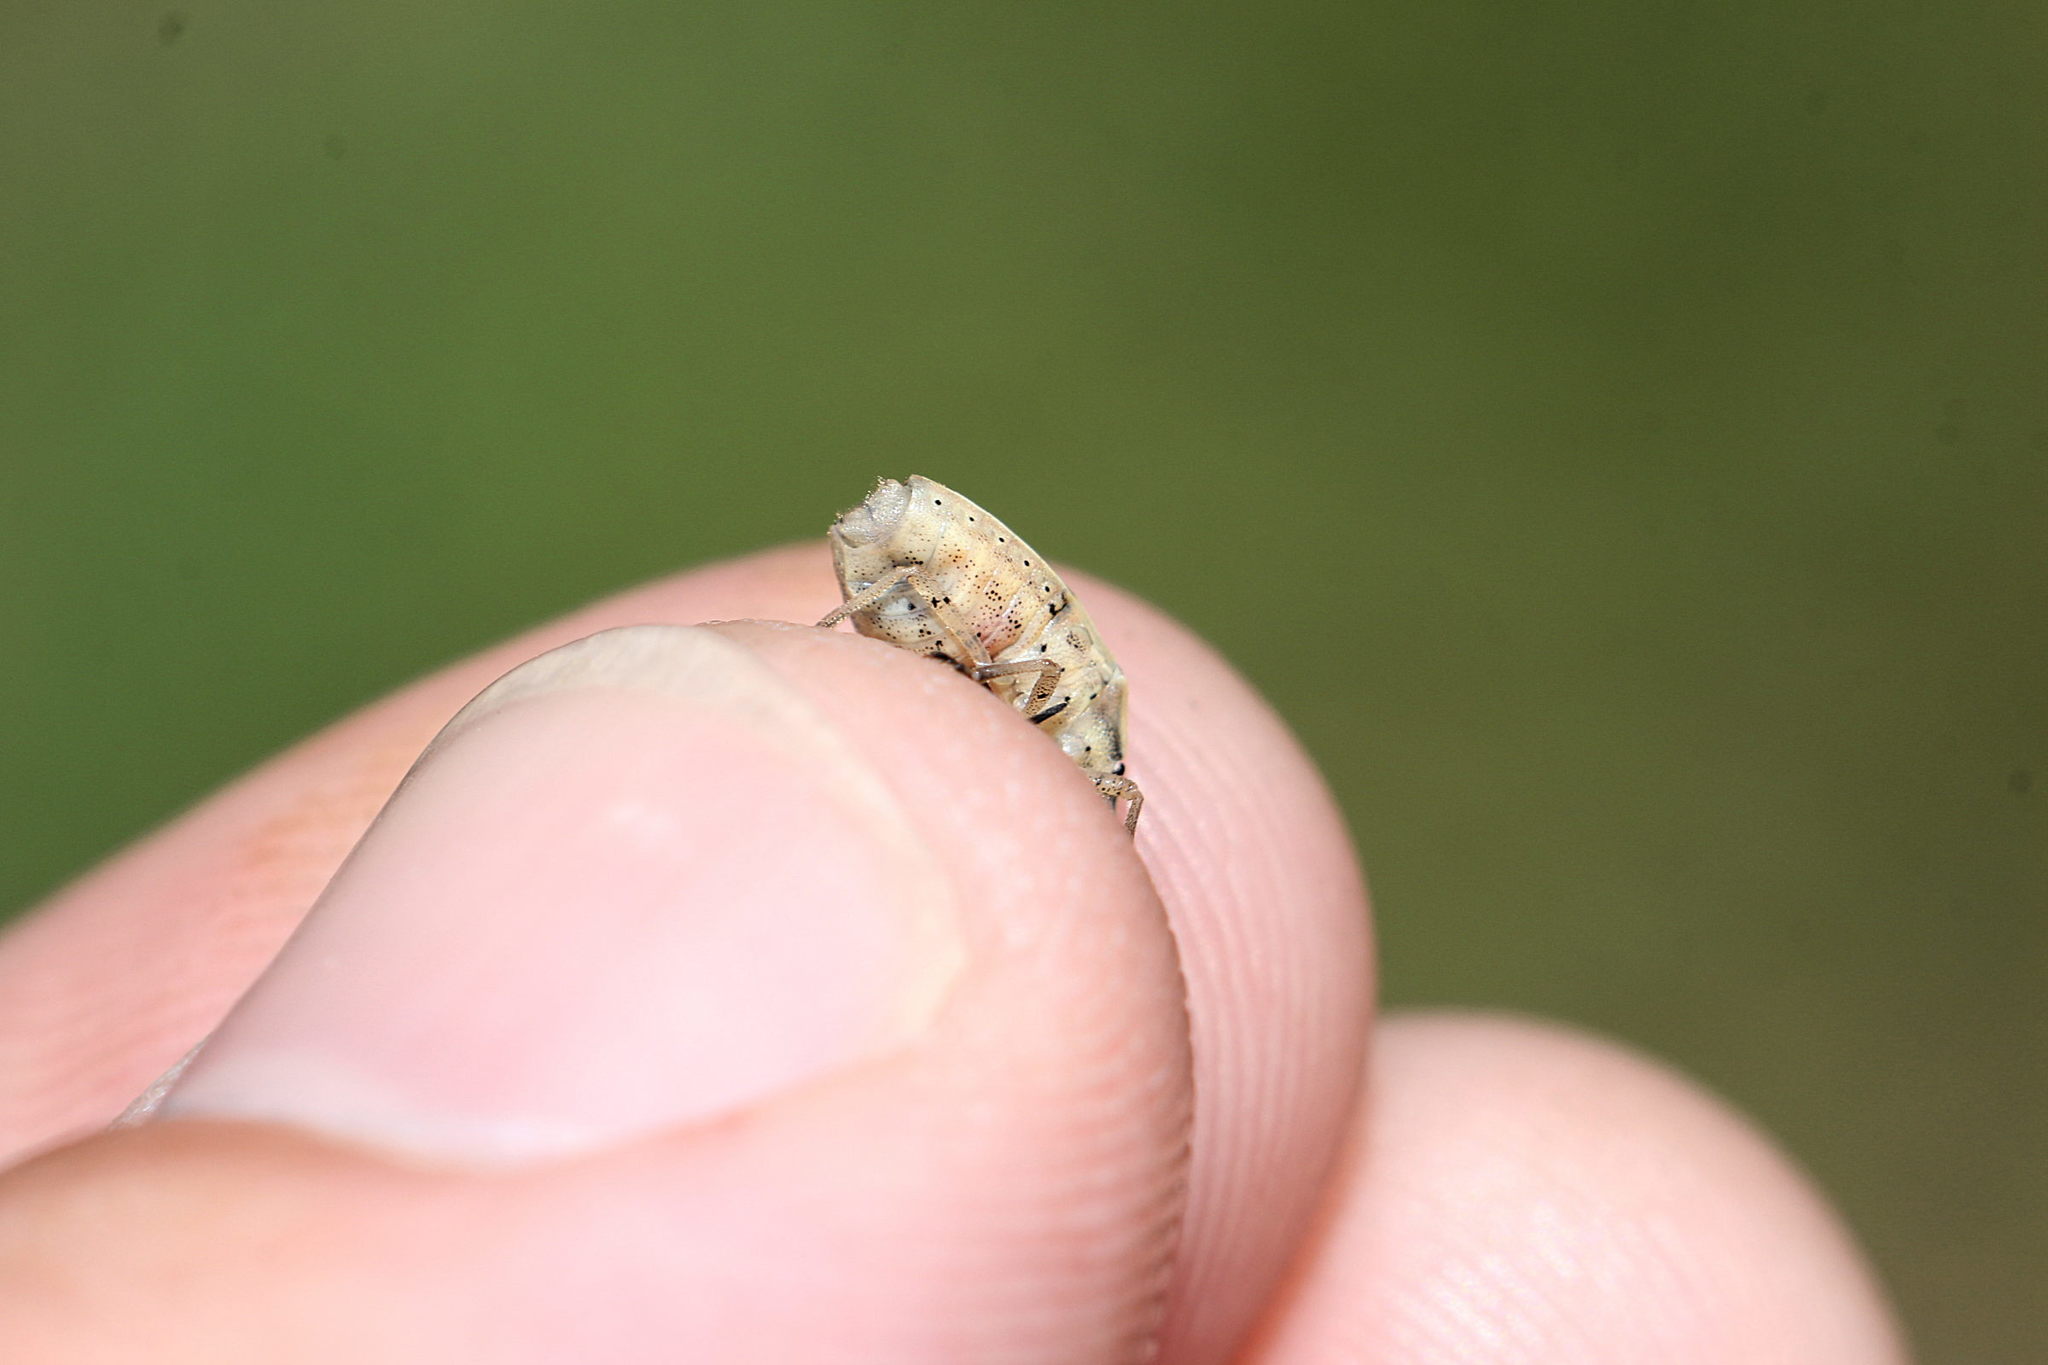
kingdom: Animalia
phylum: Arthropoda
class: Insecta
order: Hemiptera
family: Pentatomidae
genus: Aelia
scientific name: Aelia acuminata
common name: Bishop's mitre
